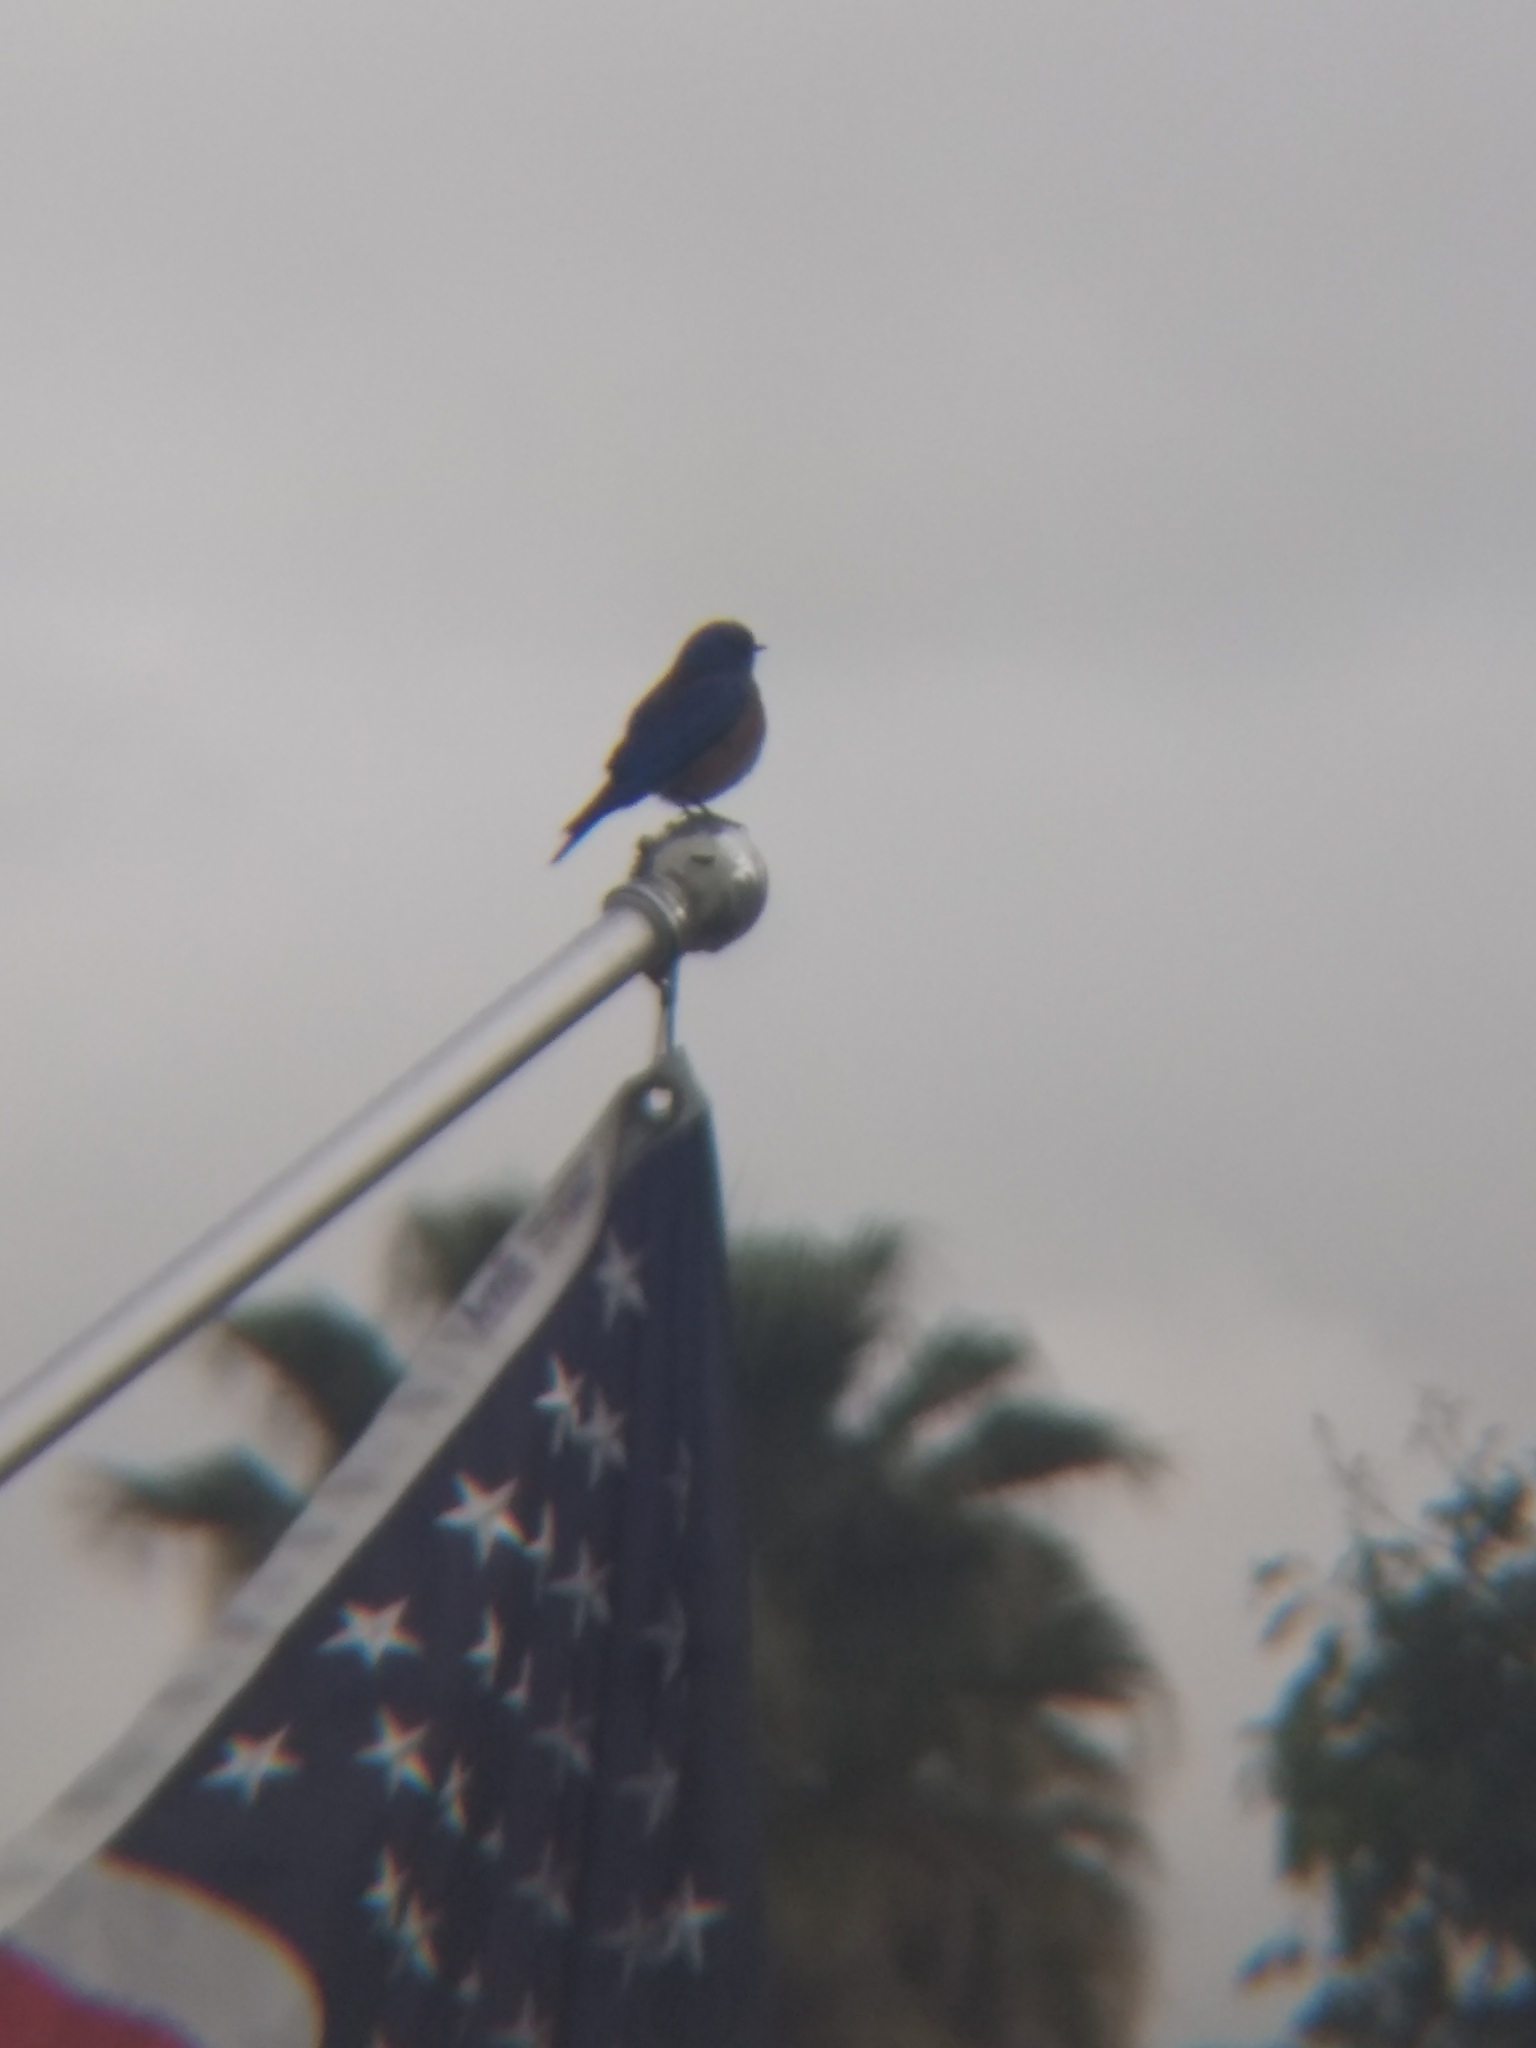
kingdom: Animalia
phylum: Chordata
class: Aves
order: Passeriformes
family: Turdidae
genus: Sialia
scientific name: Sialia mexicana
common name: Western bluebird
